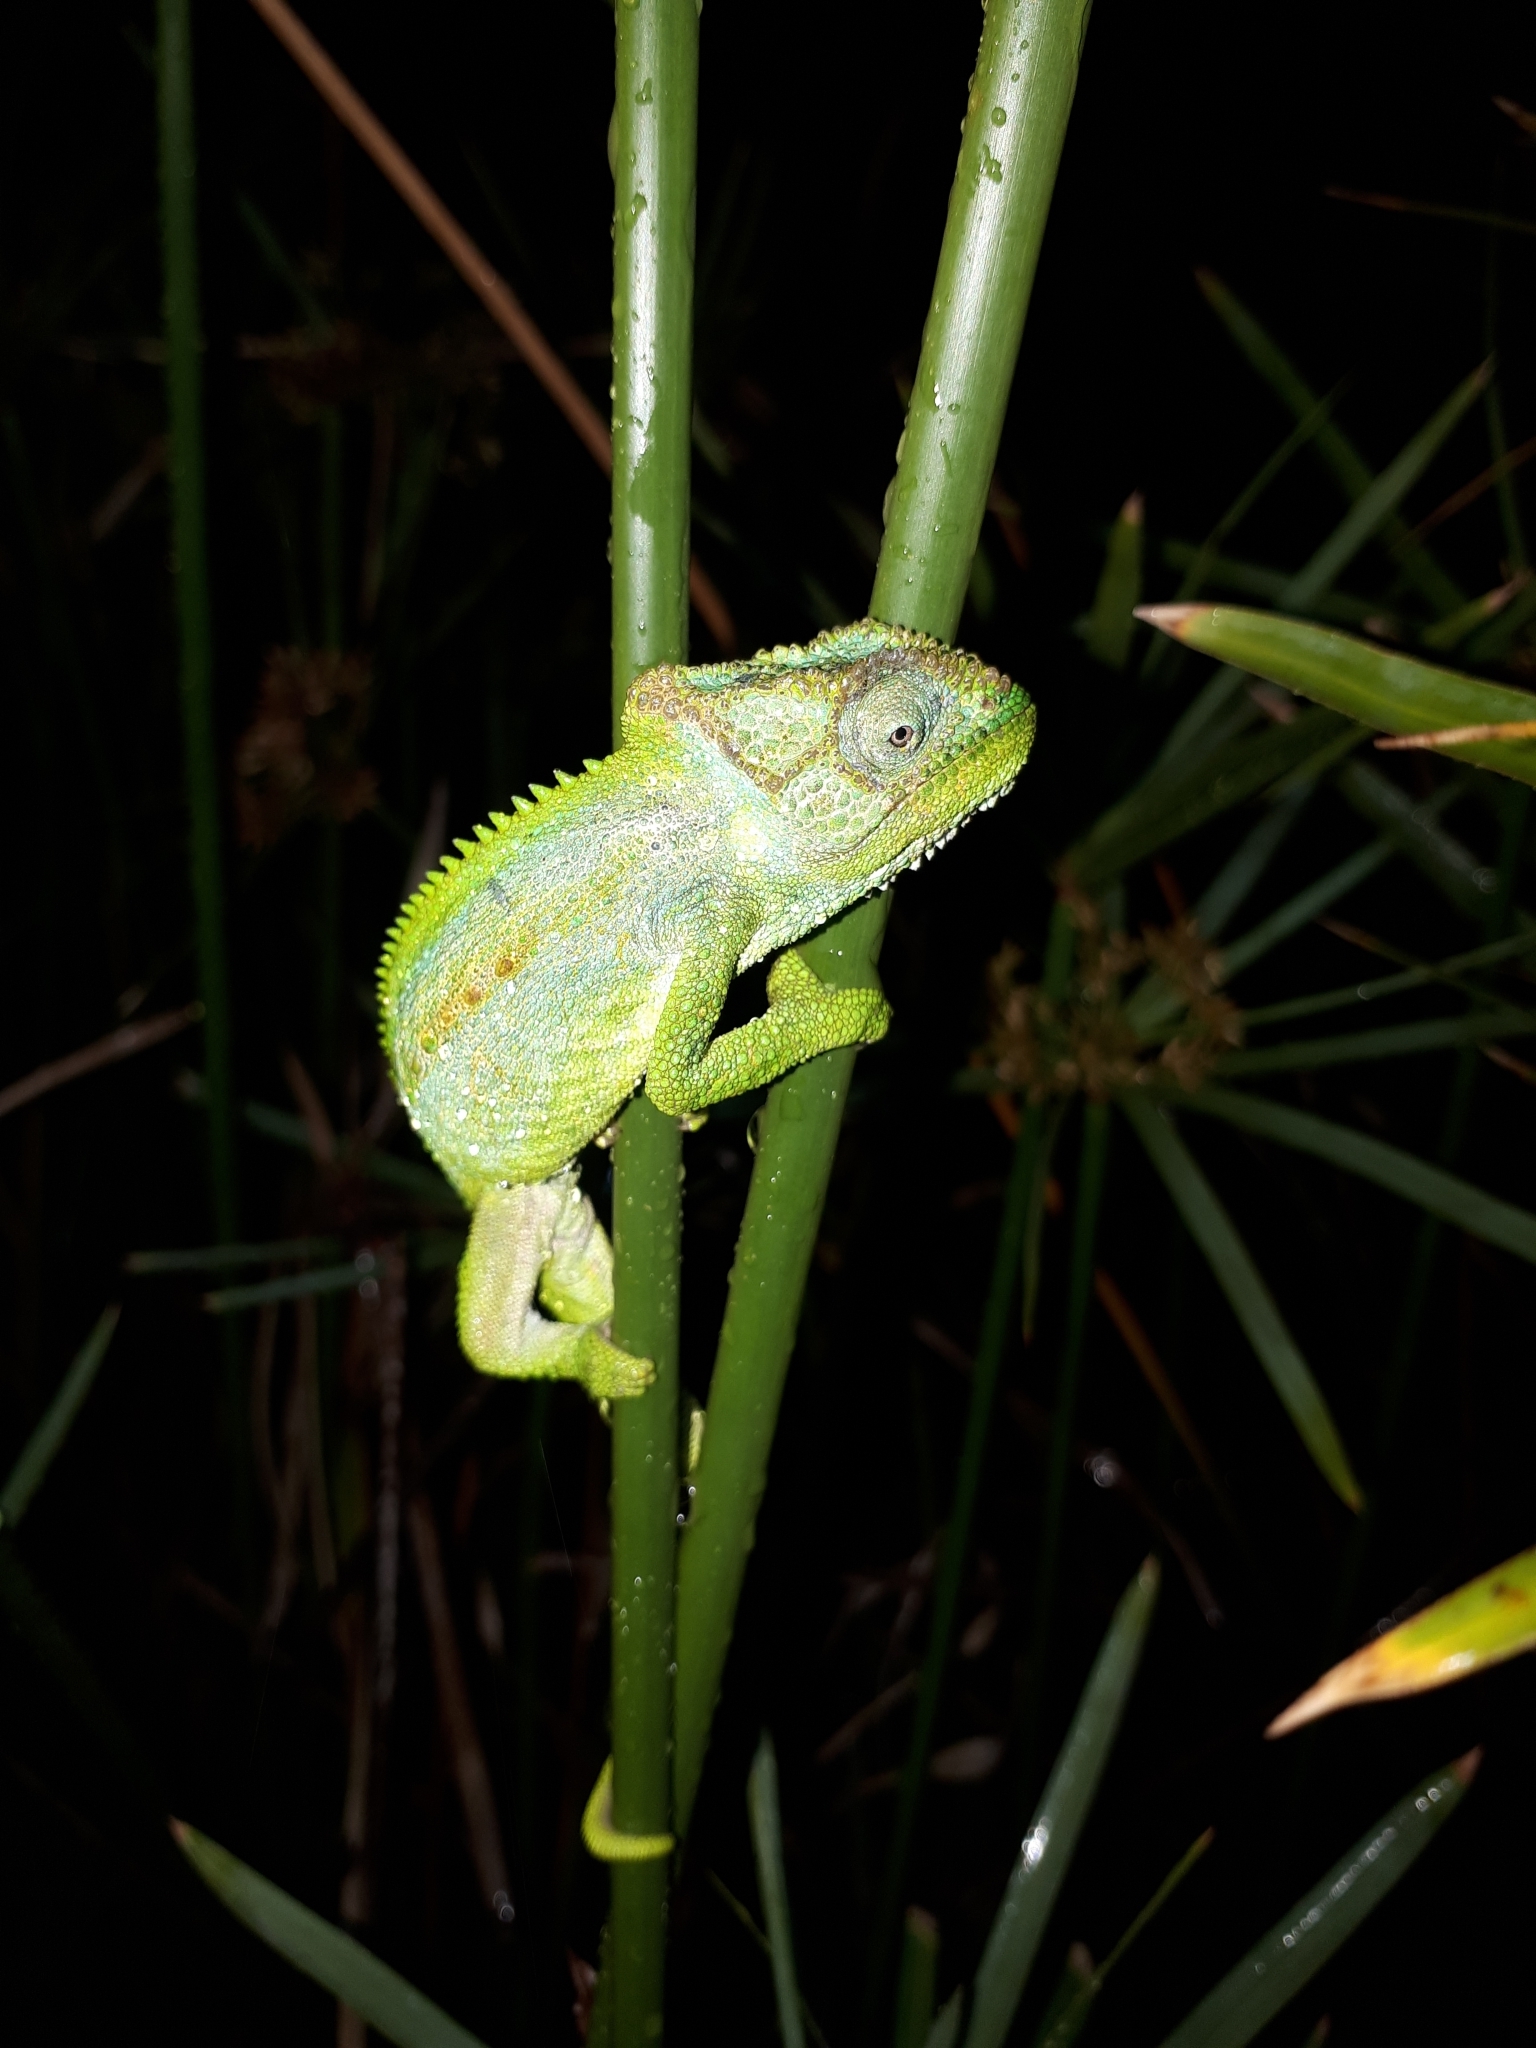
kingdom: Animalia
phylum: Chordata
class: Squamata
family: Chamaeleonidae
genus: Bradypodion
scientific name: Bradypodion pumilum
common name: Cape dwarf chameleon
